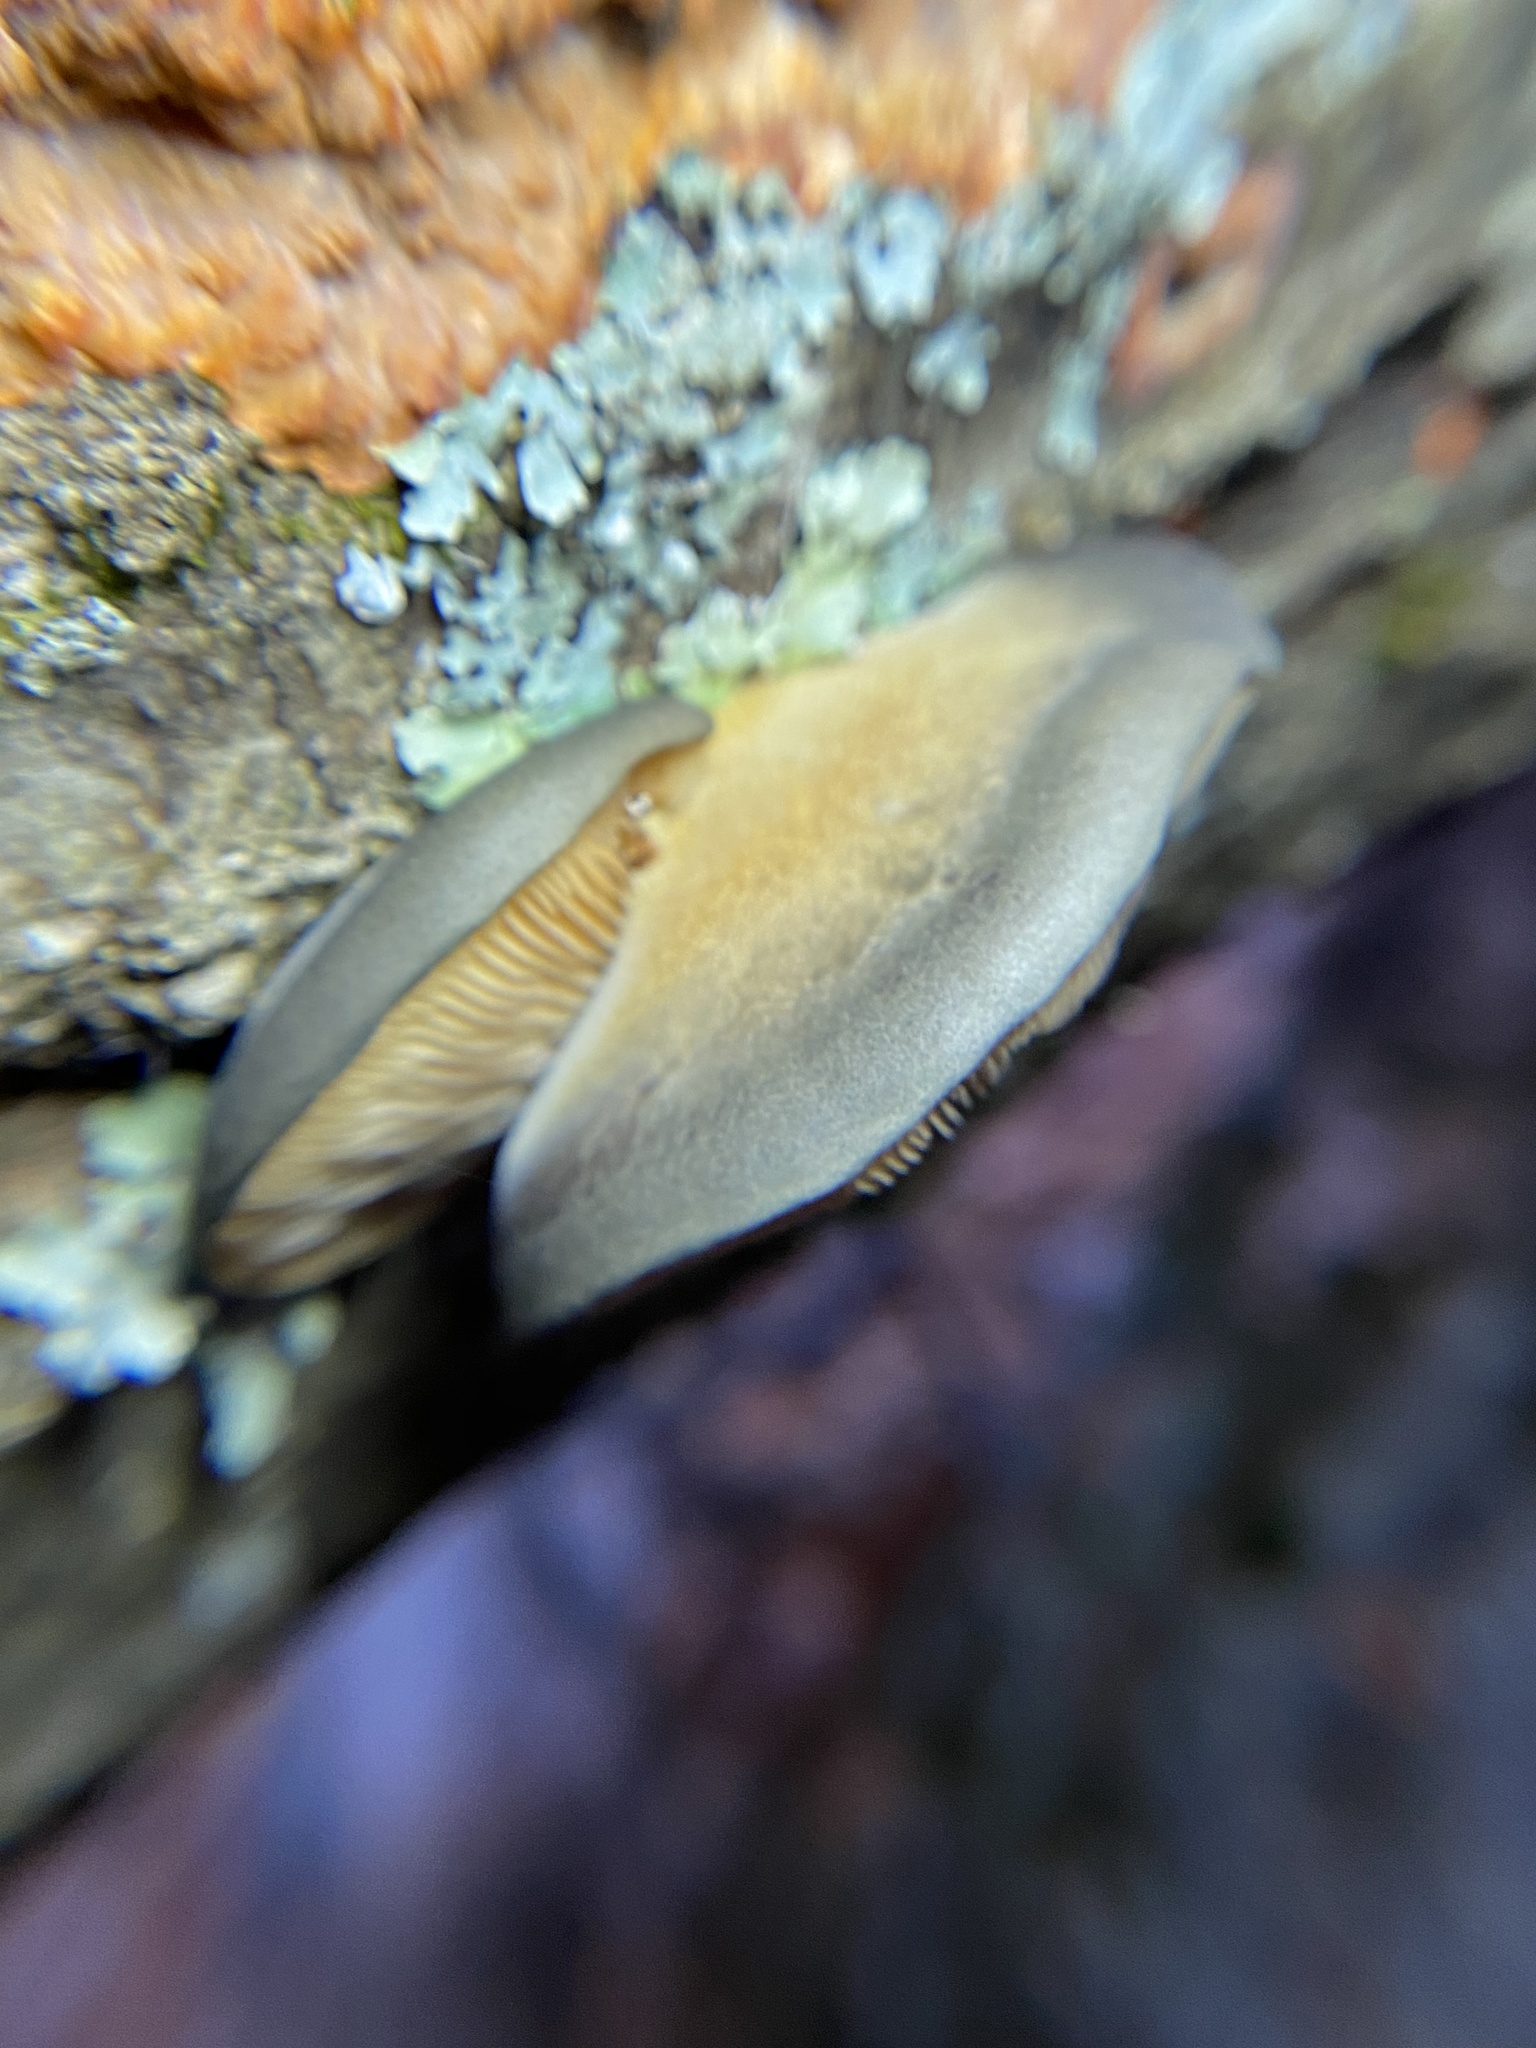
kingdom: Fungi
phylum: Basidiomycota
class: Agaricomycetes
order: Agaricales
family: Sarcomyxaceae
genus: Sarcomyxa
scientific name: Sarcomyxa serotina
